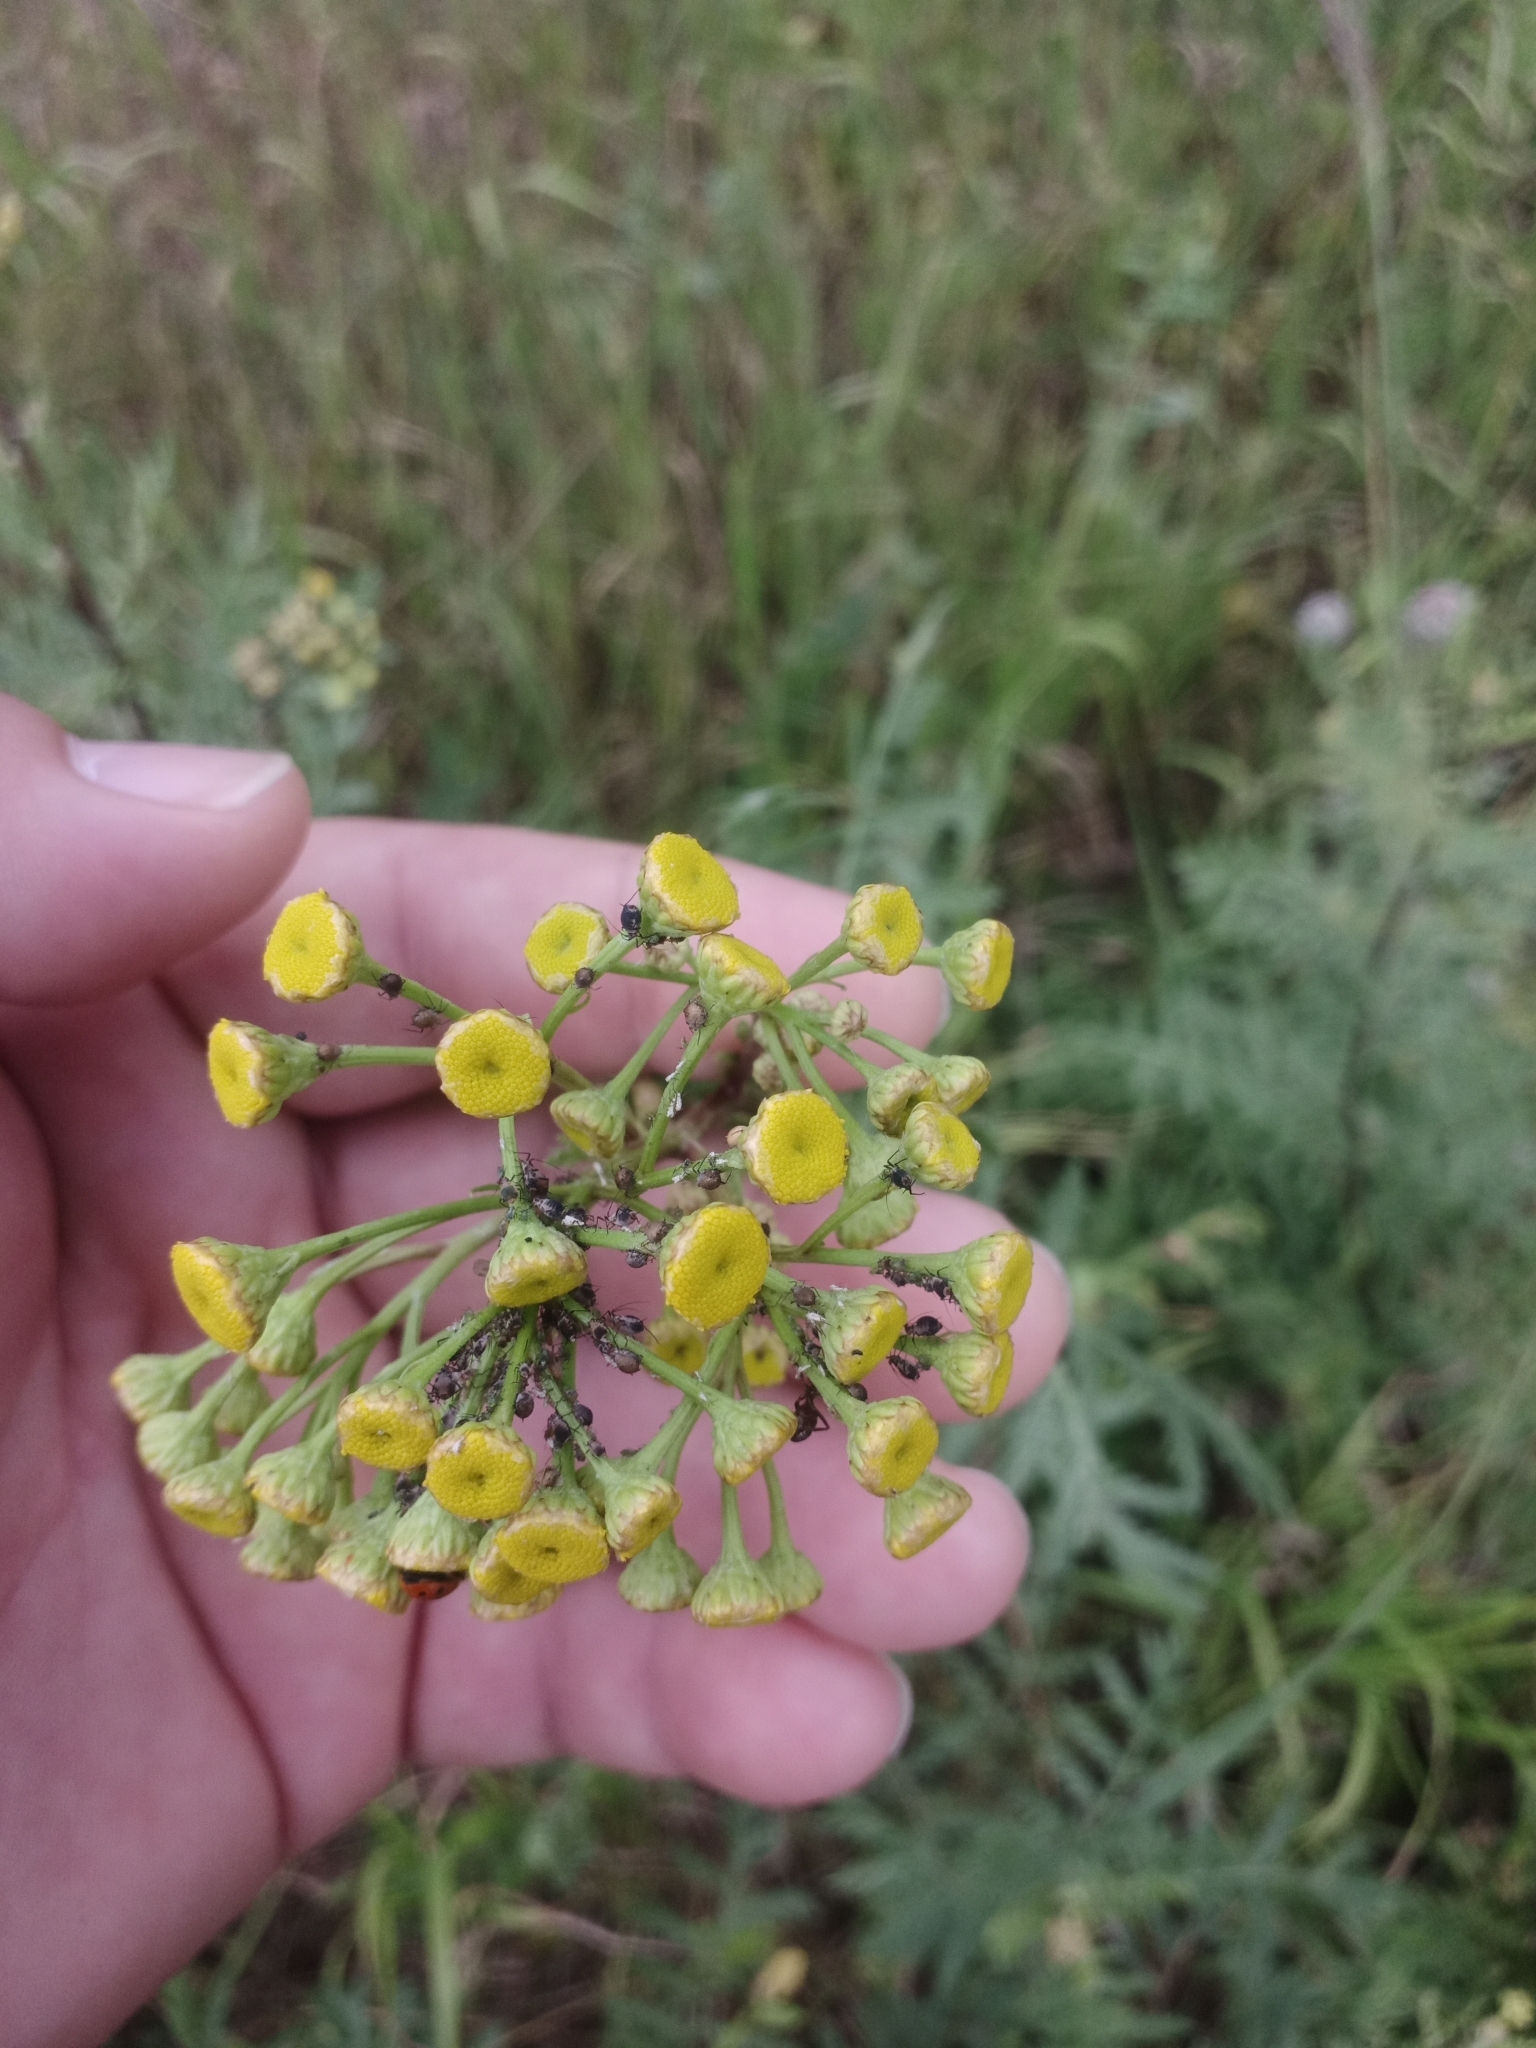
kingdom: Plantae
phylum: Tracheophyta
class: Magnoliopsida
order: Asterales
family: Asteraceae
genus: Tanacetum
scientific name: Tanacetum vulgare
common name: Common tansy
